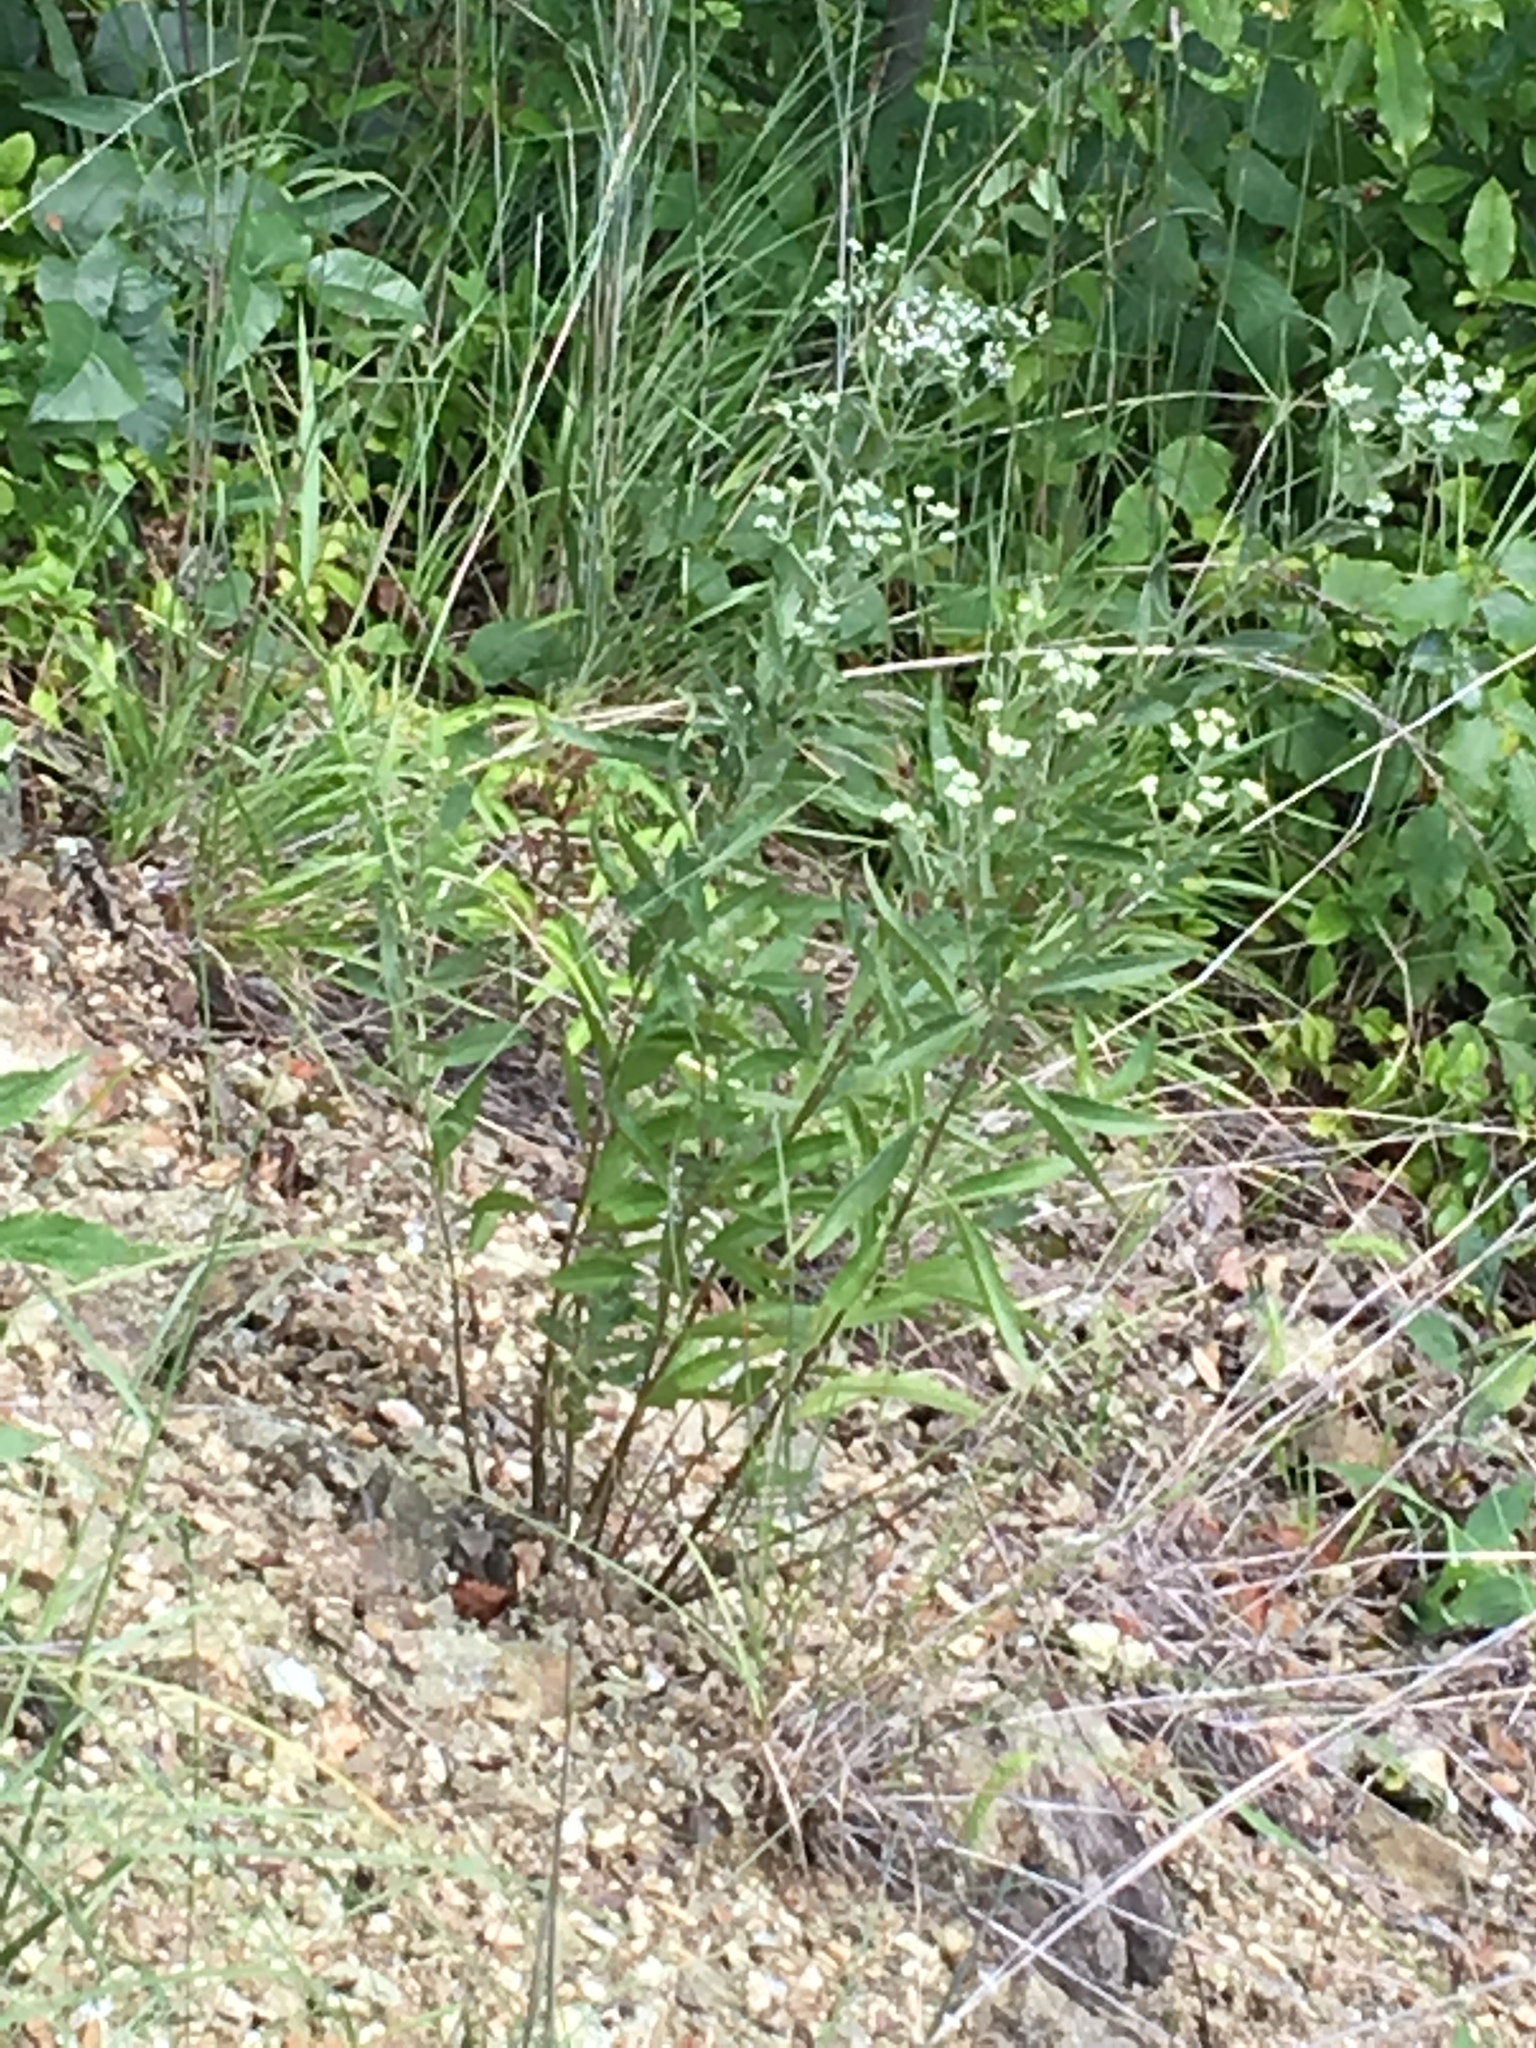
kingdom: Plantae
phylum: Tracheophyta
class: Magnoliopsida
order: Asterales
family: Asteraceae
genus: Eupatorium
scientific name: Eupatorium serotinum
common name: Late boneset
